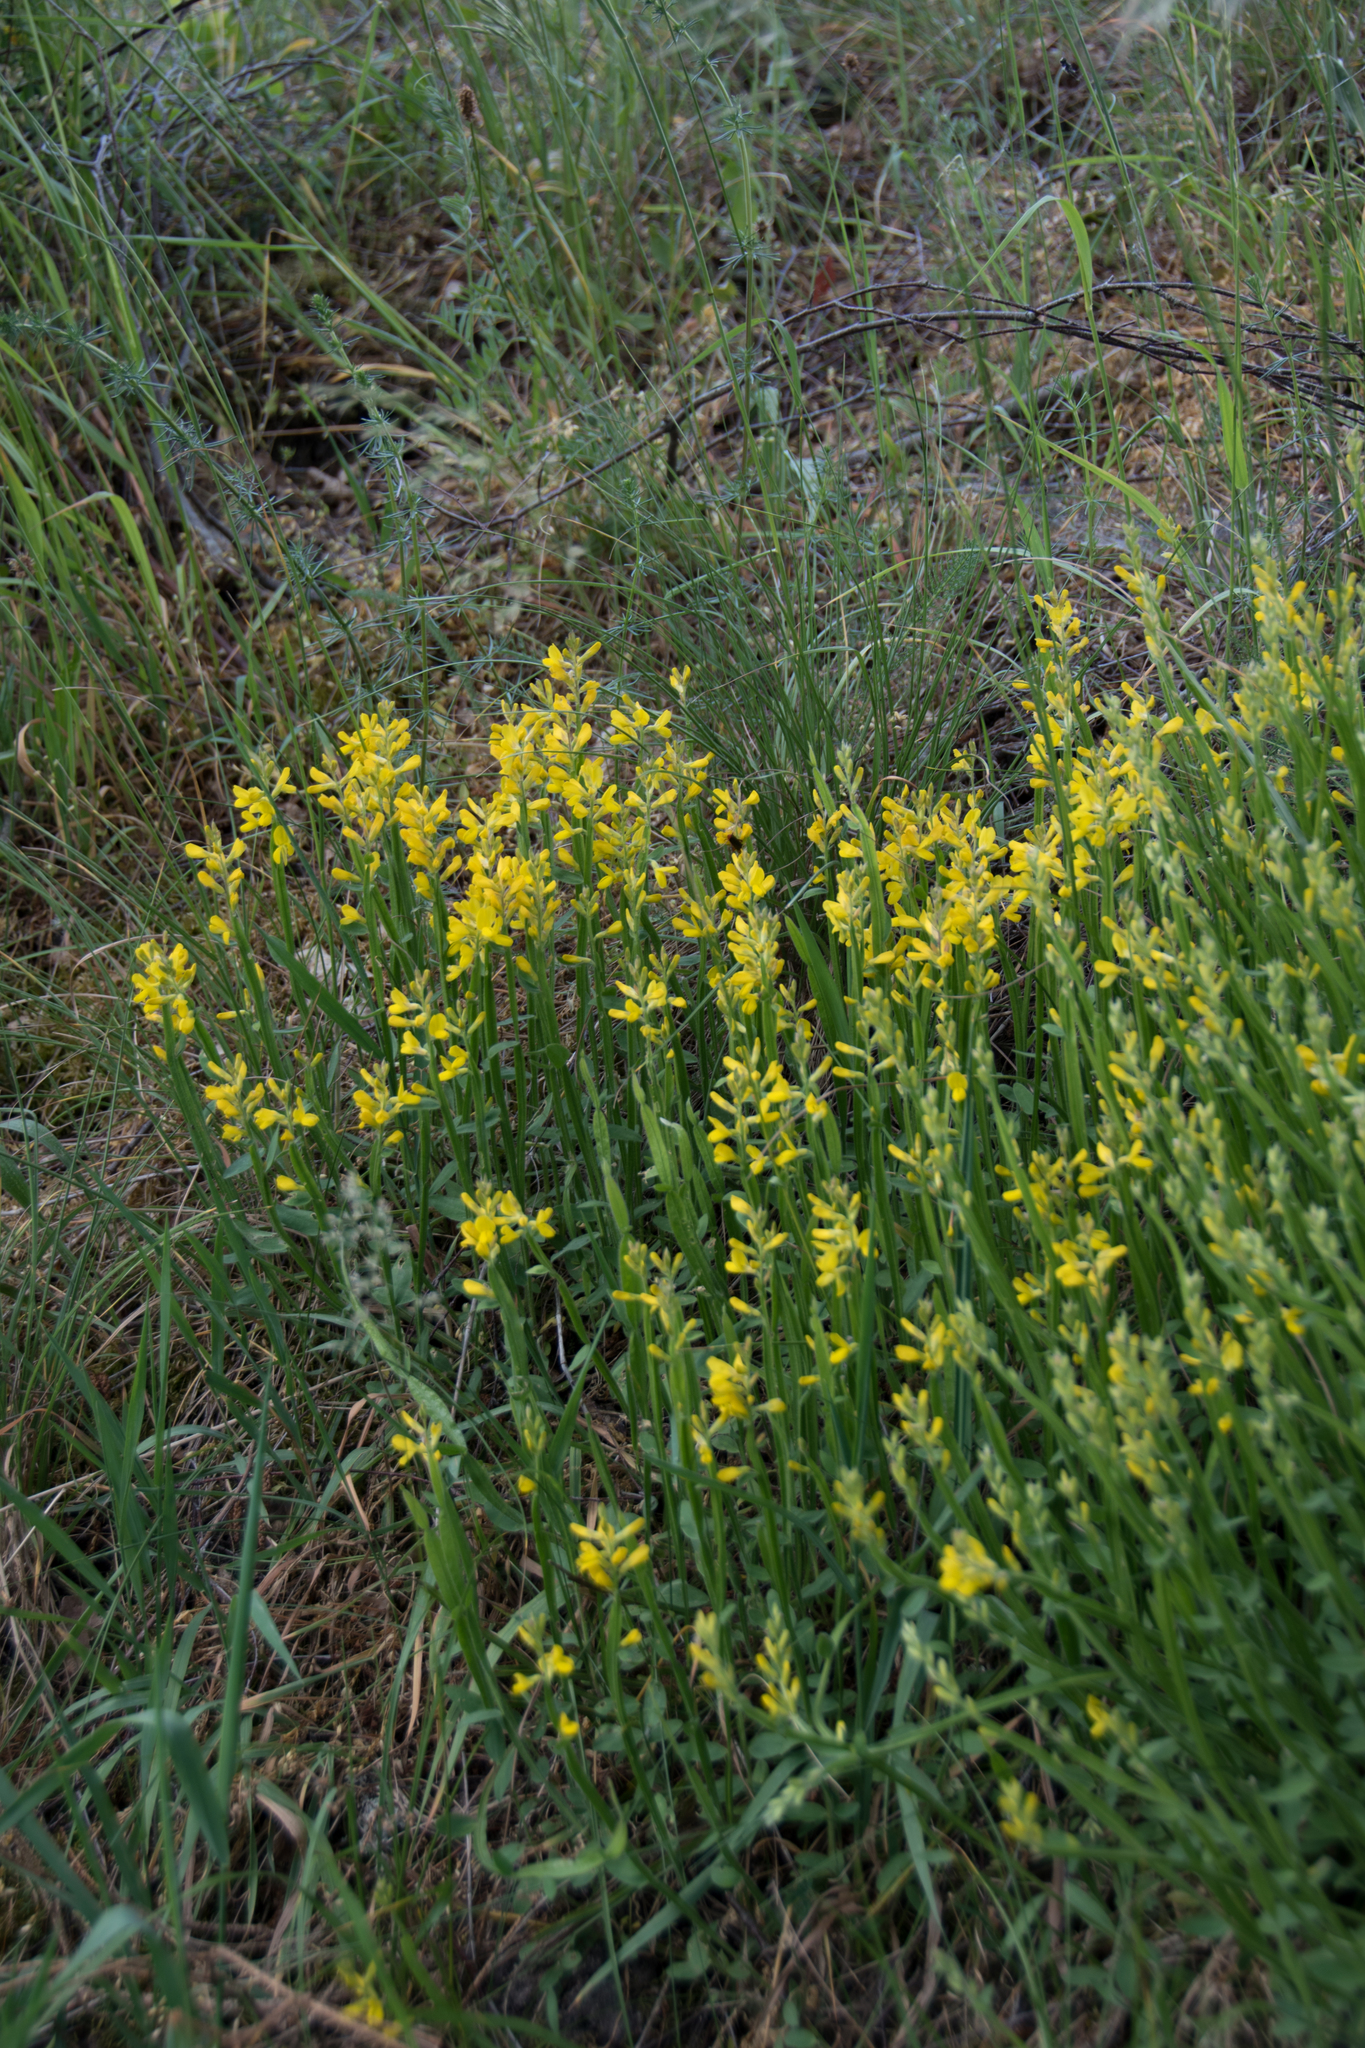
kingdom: Plantae
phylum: Tracheophyta
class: Magnoliopsida
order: Fabales
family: Fabaceae
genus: Genista
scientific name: Genista sagittalis
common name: Winged greenweed
